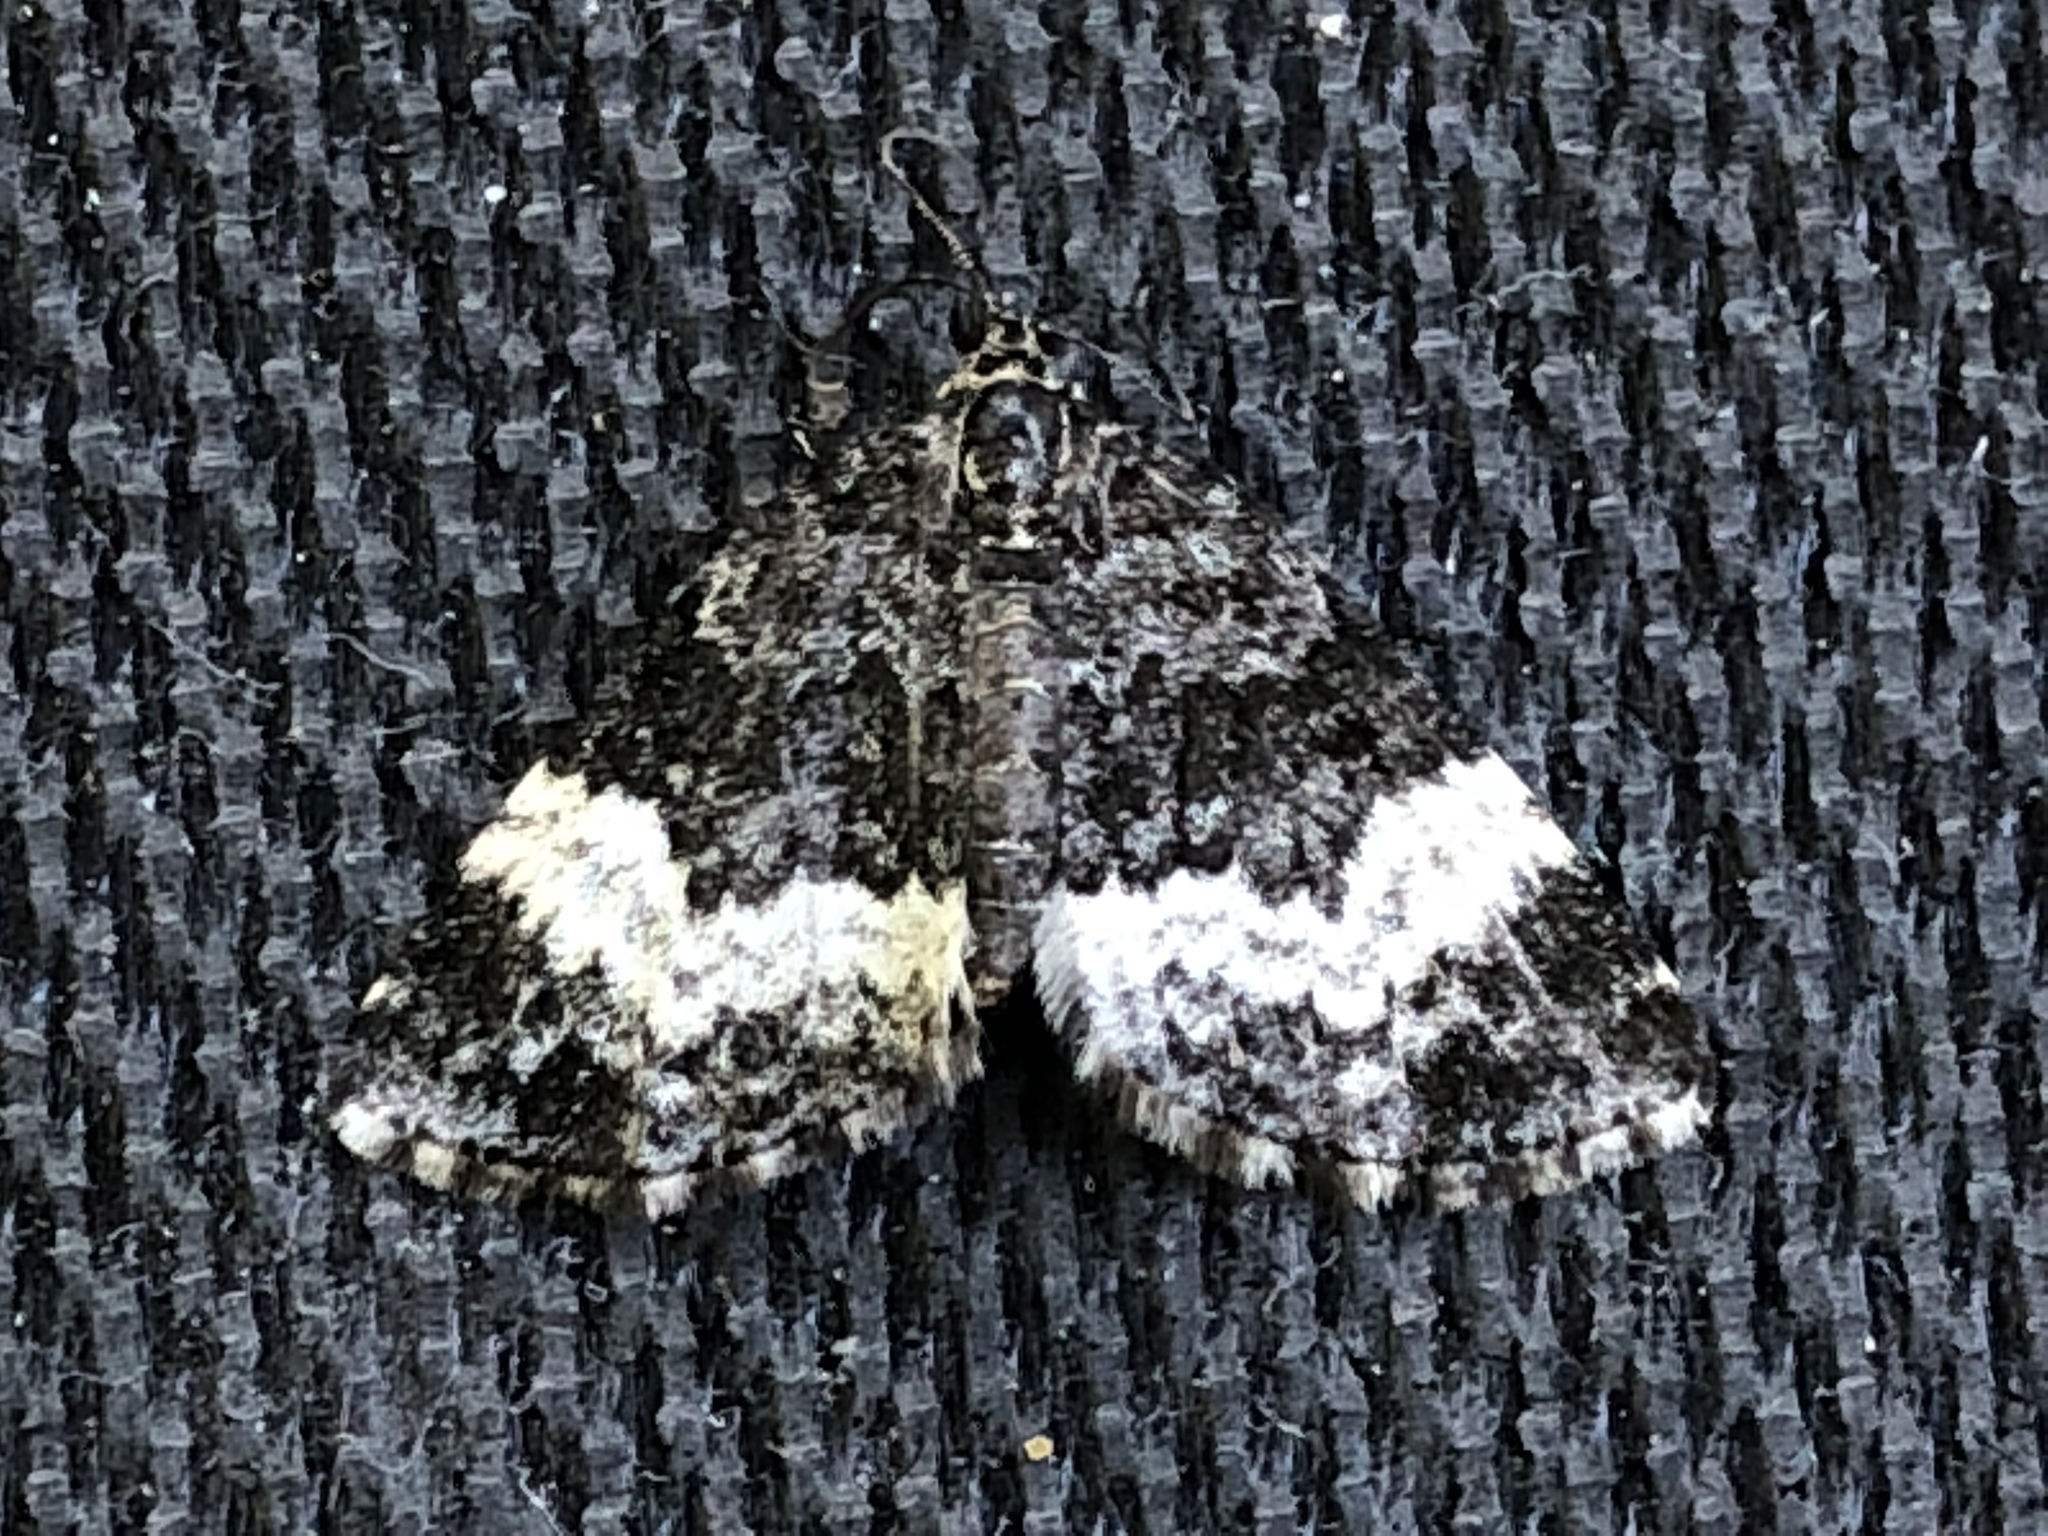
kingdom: Animalia
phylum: Arthropoda
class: Insecta
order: Lepidoptera
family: Geometridae
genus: Spargania
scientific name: Spargania luctuata
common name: White-banded carpet
